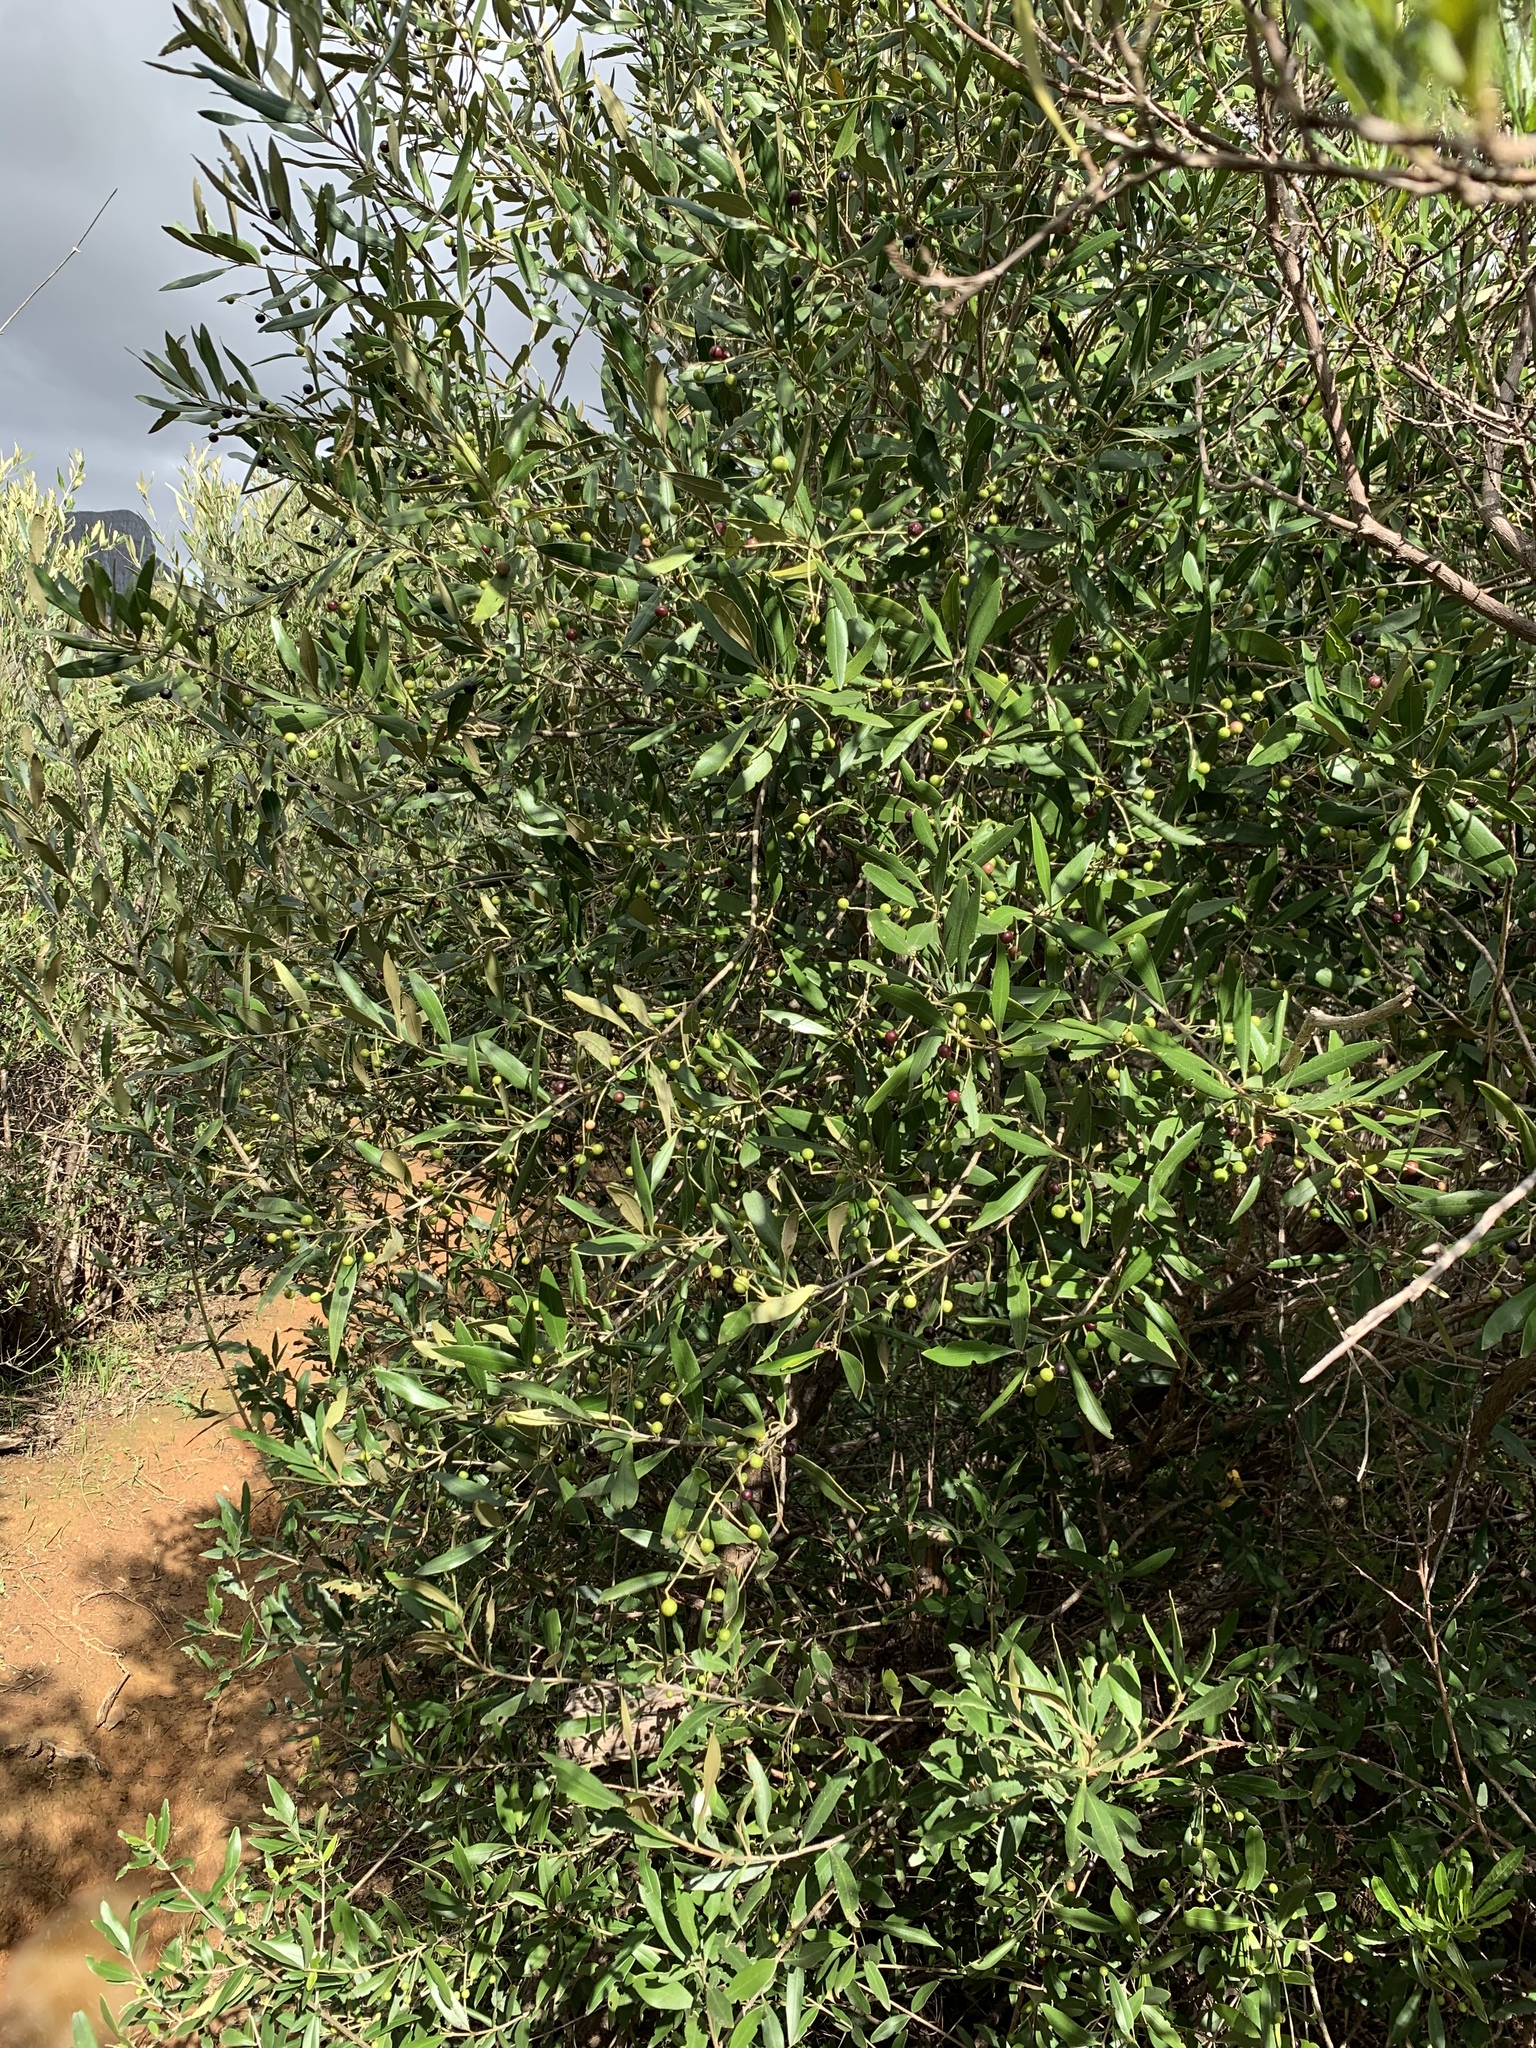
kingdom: Plantae
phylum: Tracheophyta
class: Magnoliopsida
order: Lamiales
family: Oleaceae
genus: Olea
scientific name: Olea europaea
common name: Olive
